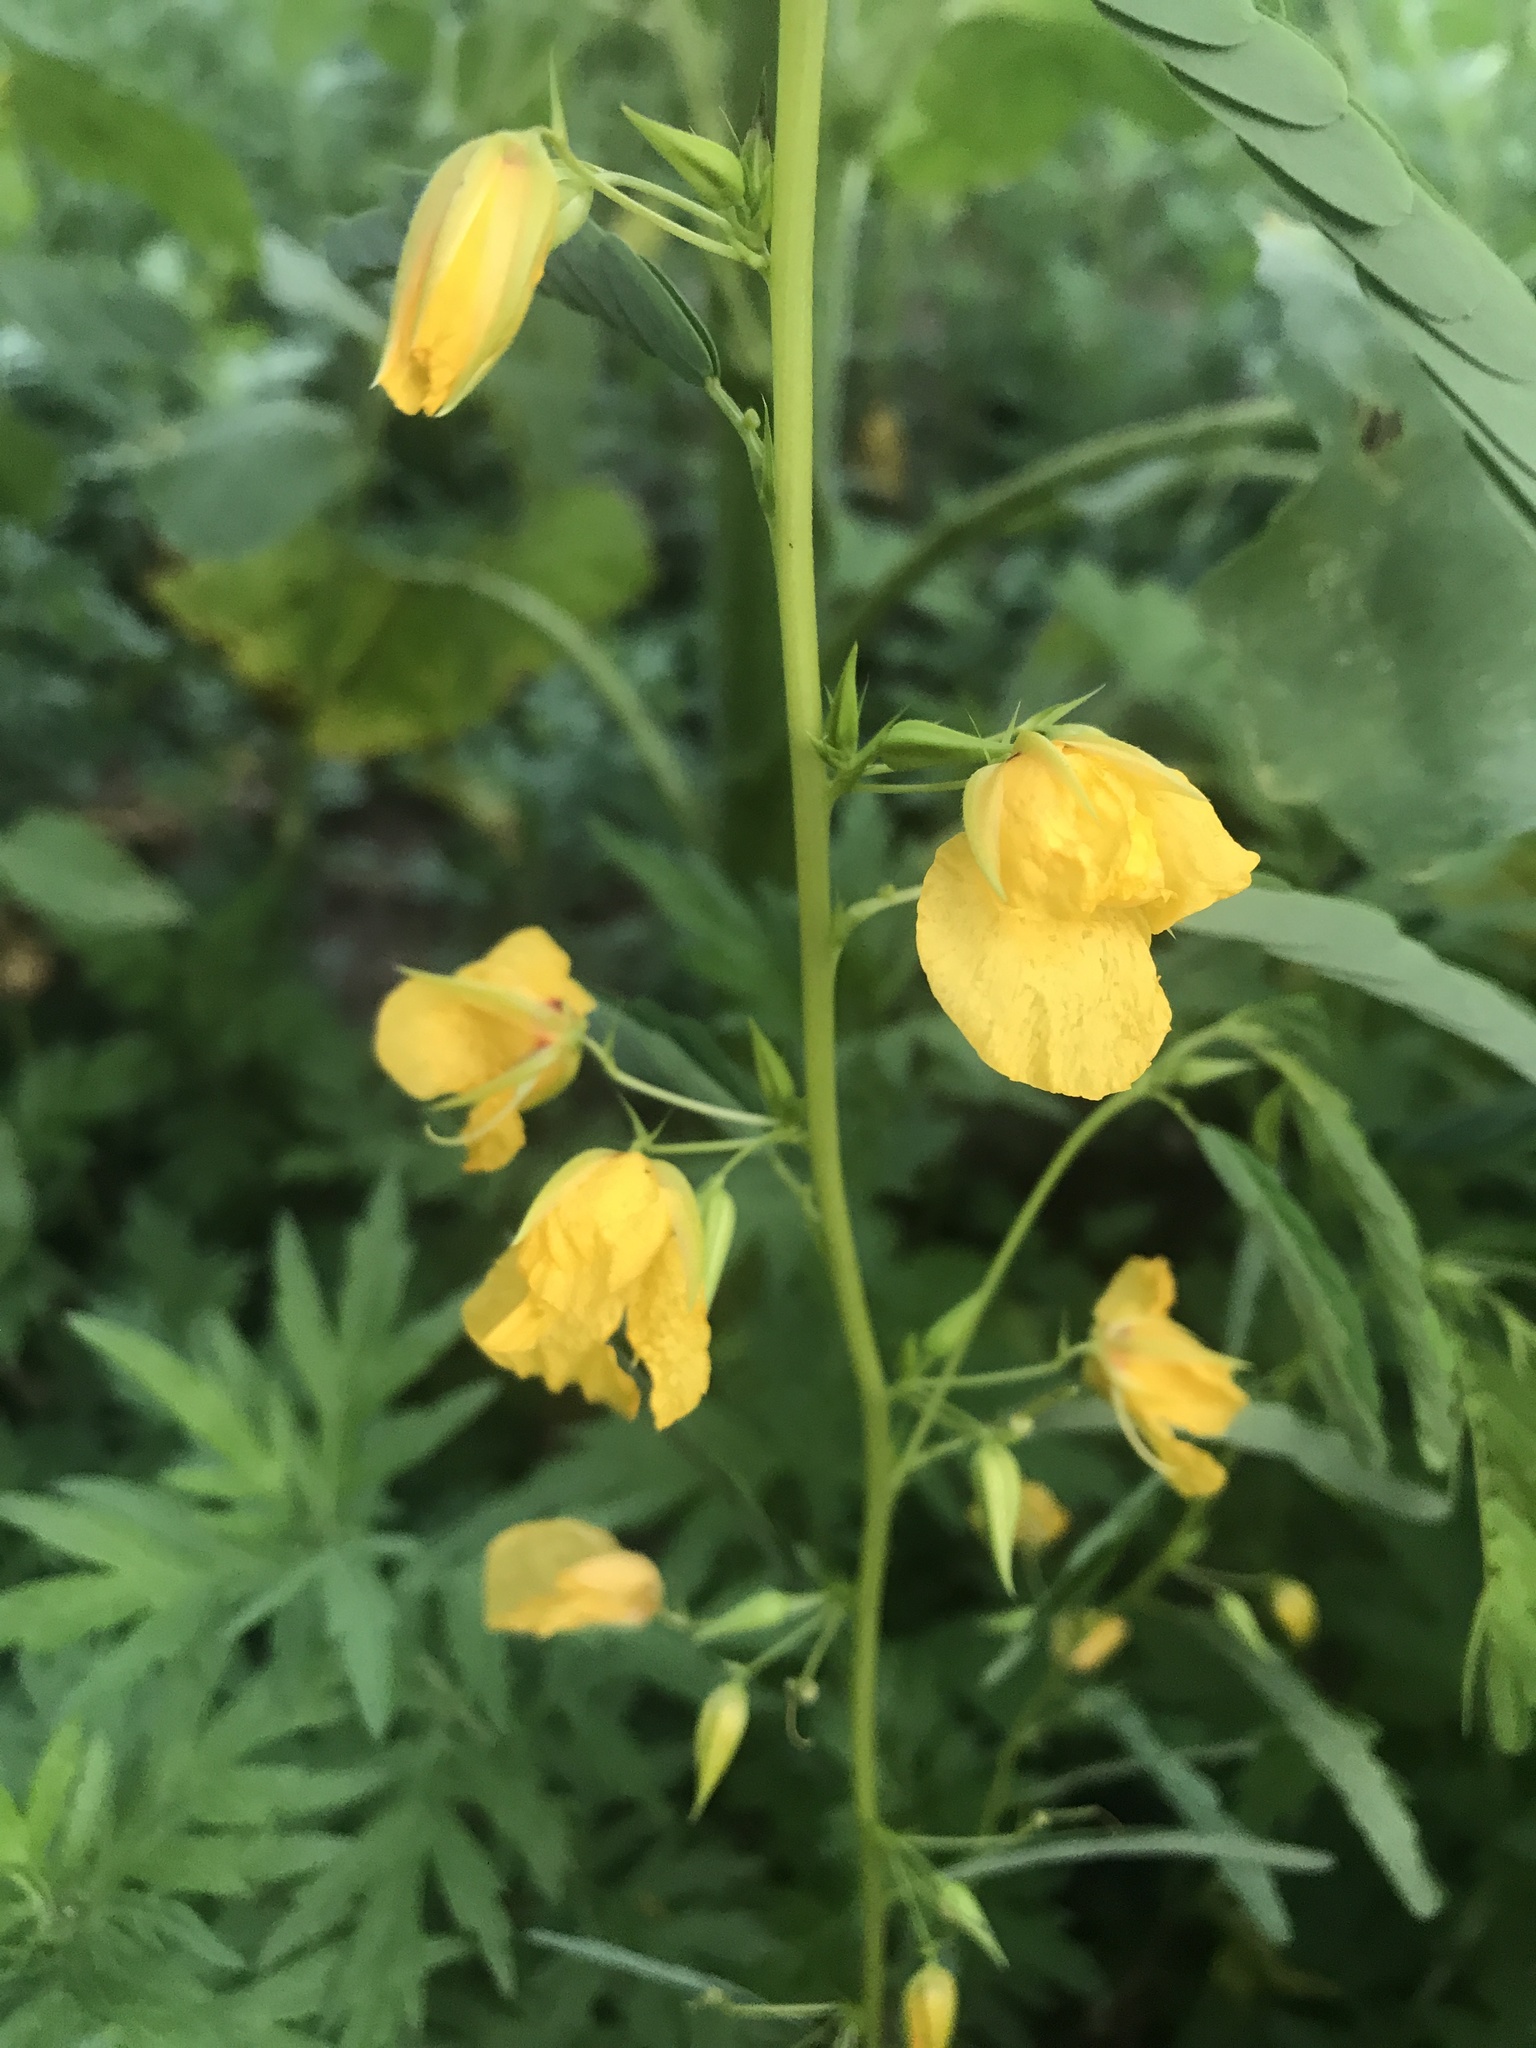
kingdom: Plantae
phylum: Tracheophyta
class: Magnoliopsida
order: Fabales
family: Fabaceae
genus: Chamaecrista
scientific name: Chamaecrista fasciculata
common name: Golden cassia
